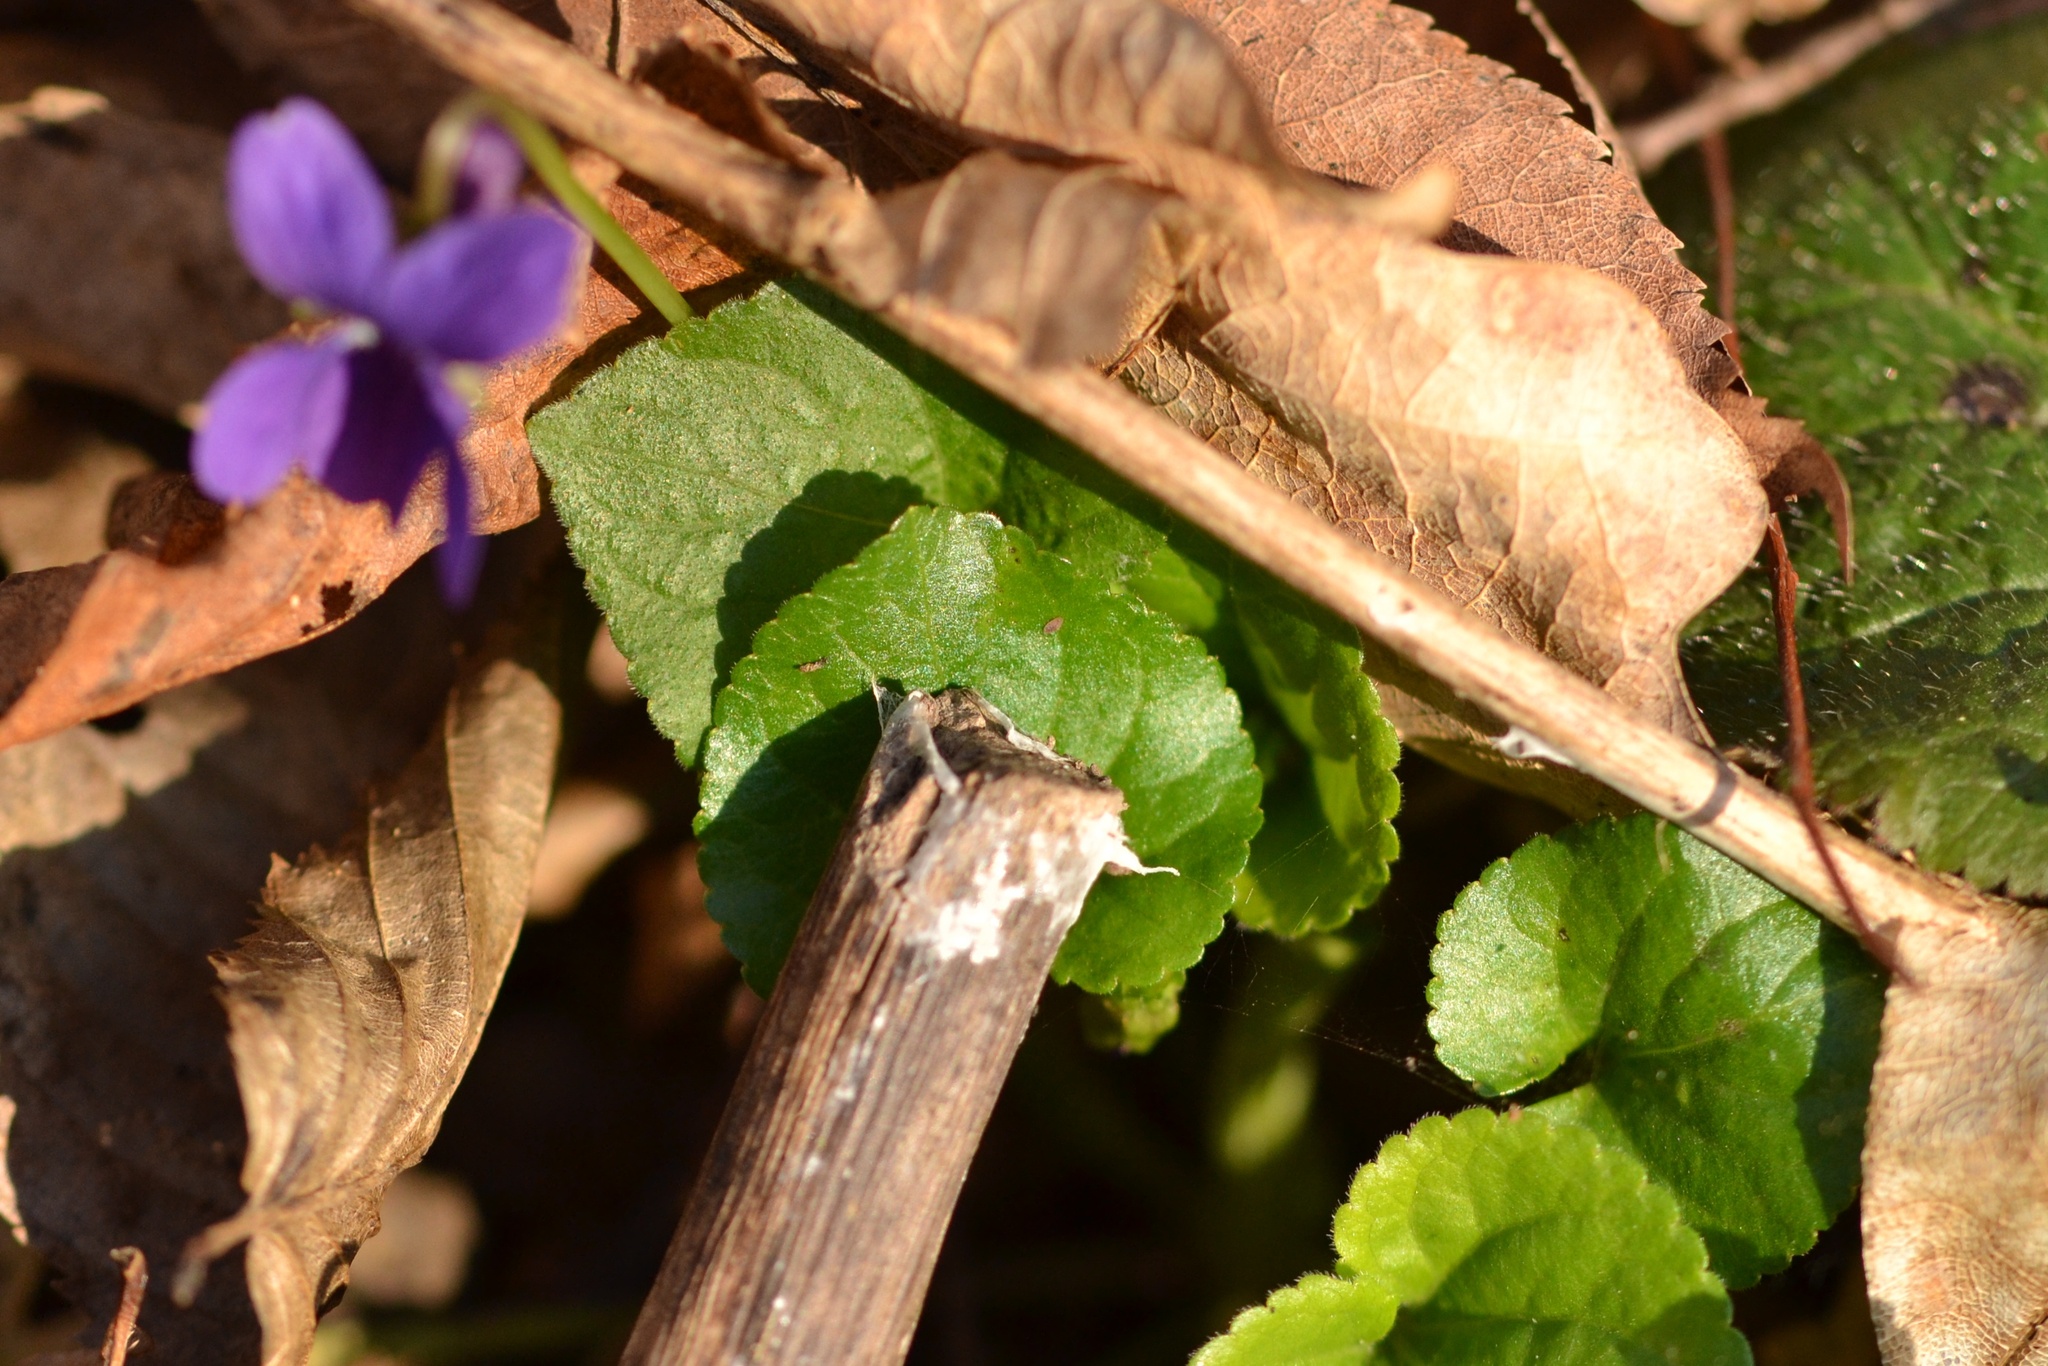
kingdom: Plantae
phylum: Tracheophyta
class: Magnoliopsida
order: Malpighiales
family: Violaceae
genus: Viola
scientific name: Viola odorata
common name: Sweet violet
